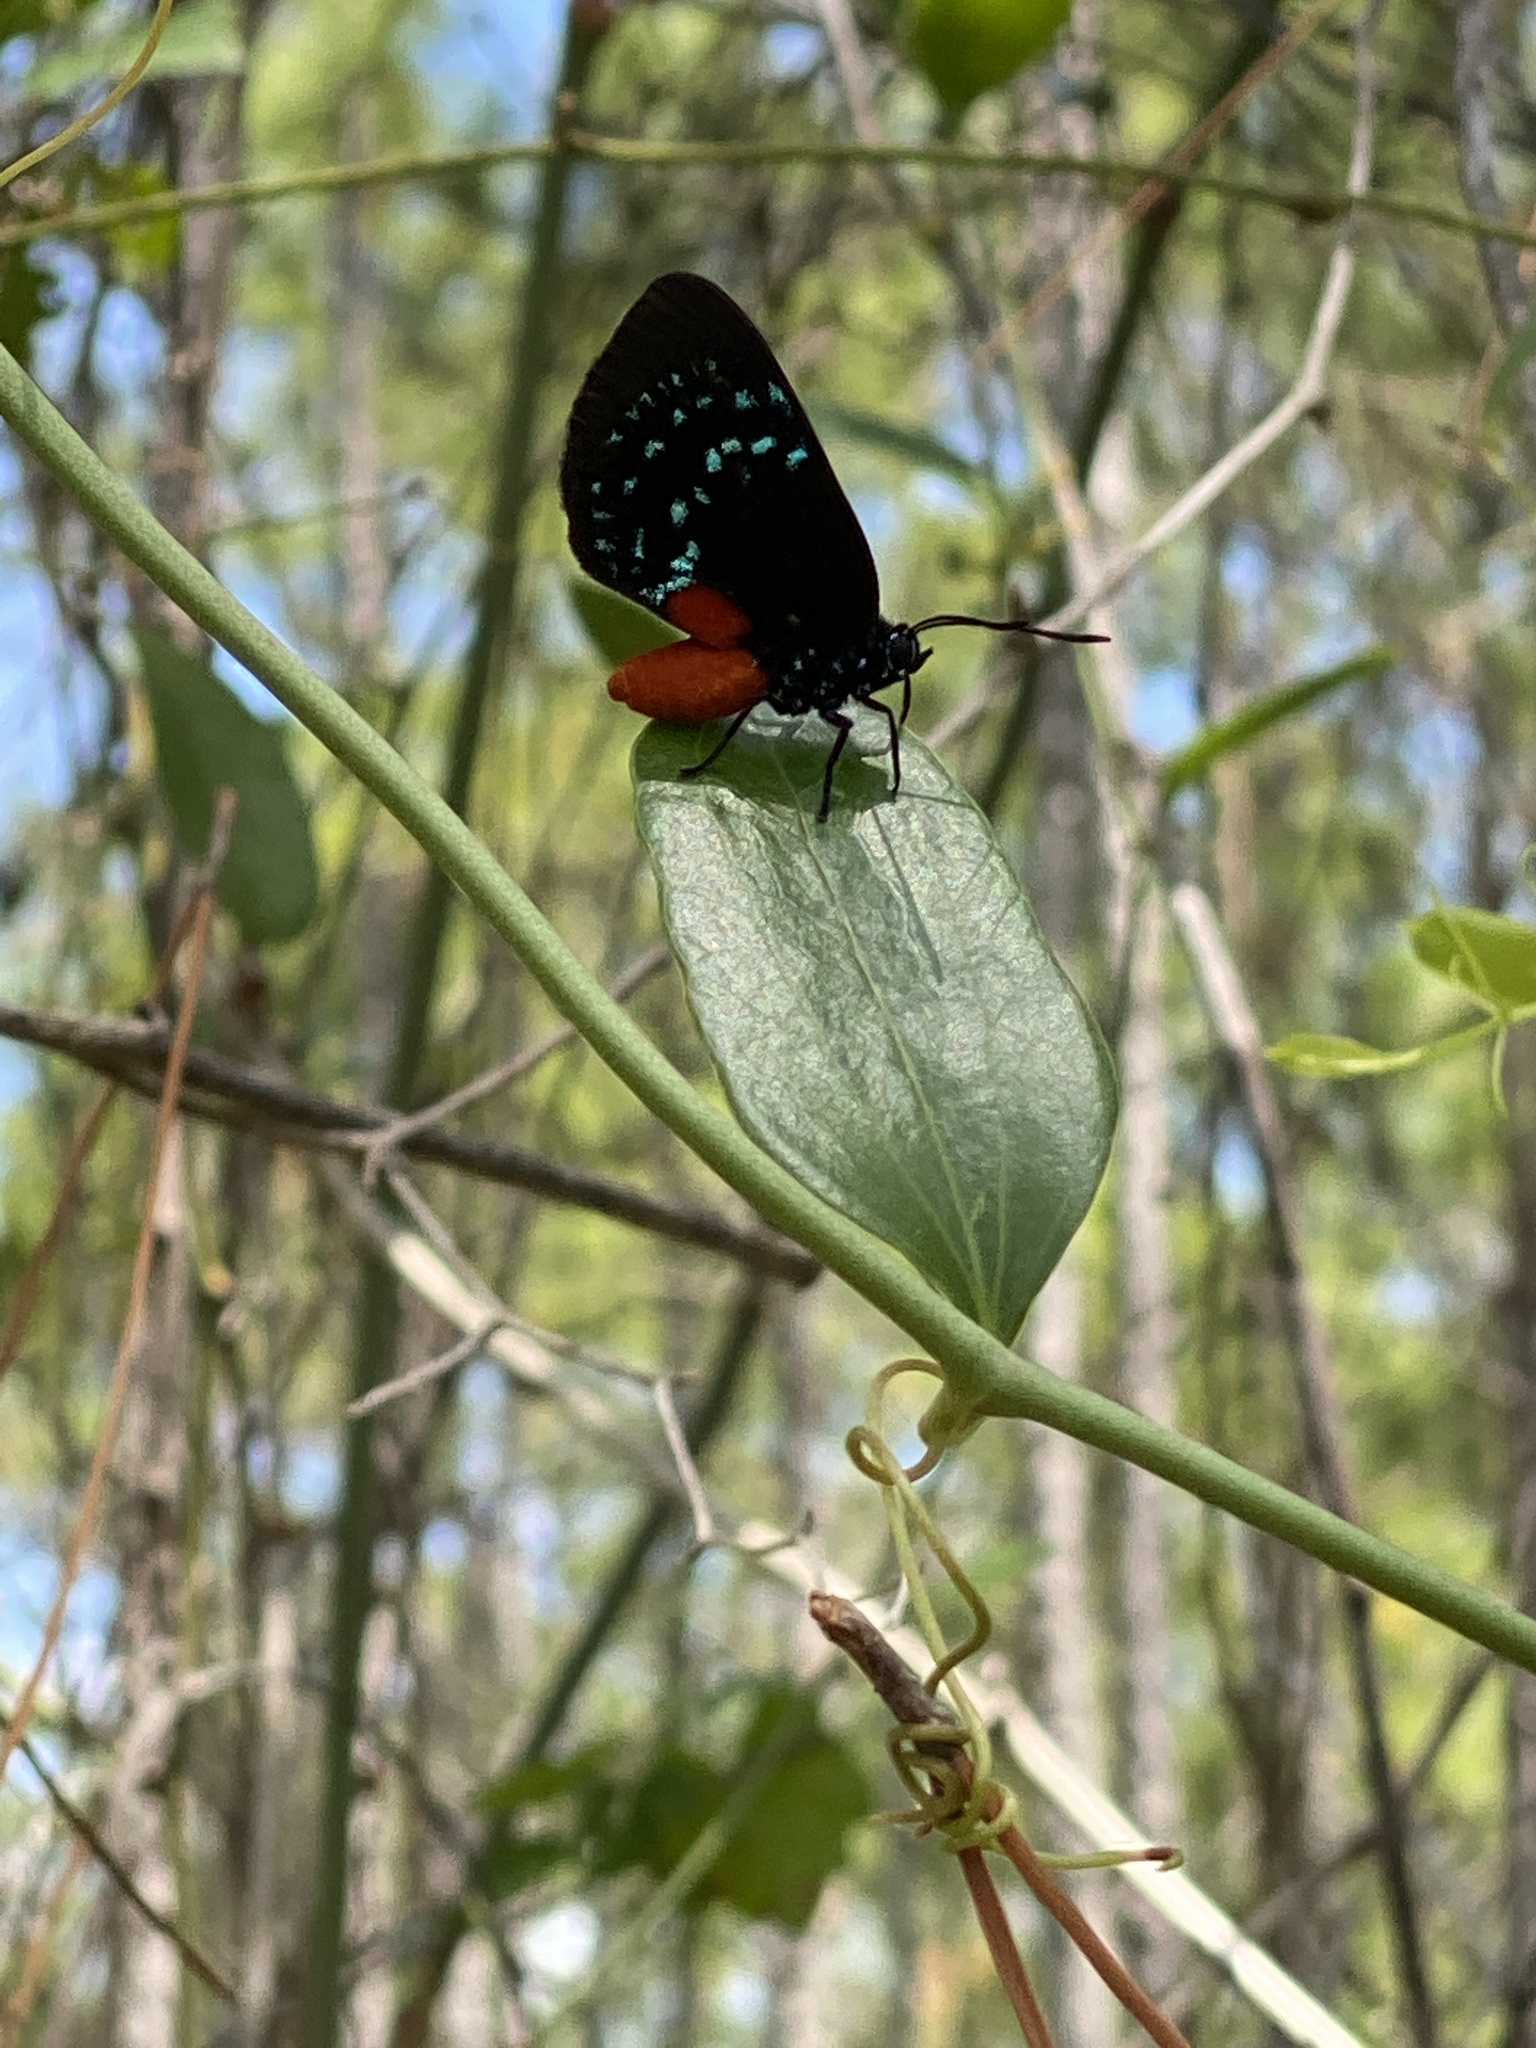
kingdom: Animalia
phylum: Arthropoda
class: Insecta
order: Lepidoptera
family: Lycaenidae
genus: Eumaeus
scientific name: Eumaeus atala
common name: Atala
